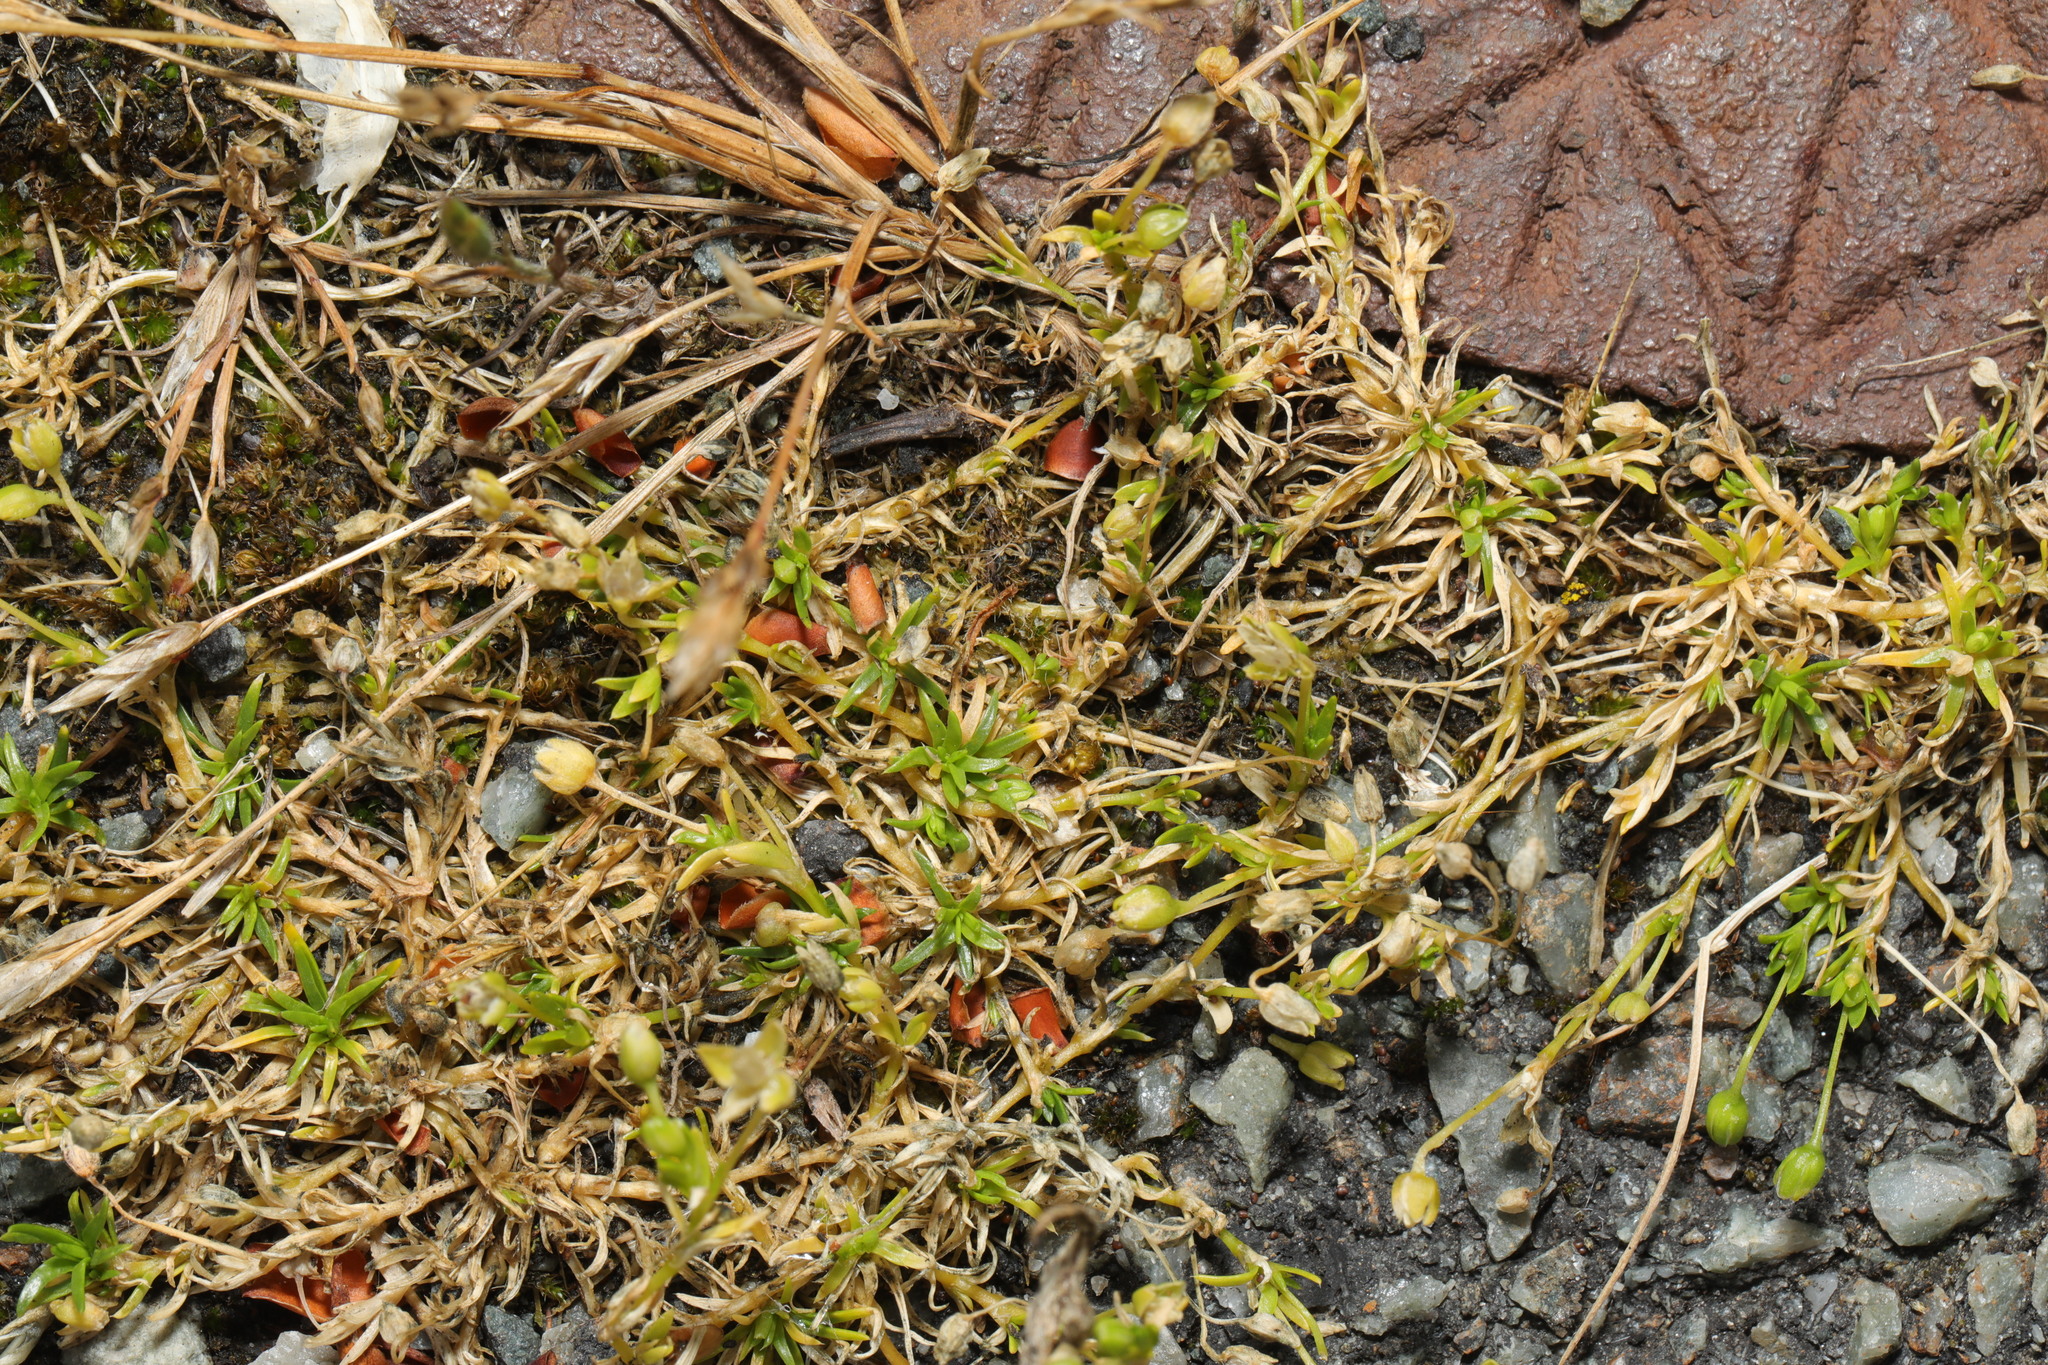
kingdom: Plantae
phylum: Tracheophyta
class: Magnoliopsida
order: Caryophyllales
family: Caryophyllaceae
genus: Sagina
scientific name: Sagina procumbens
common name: Procumbent pearlwort
